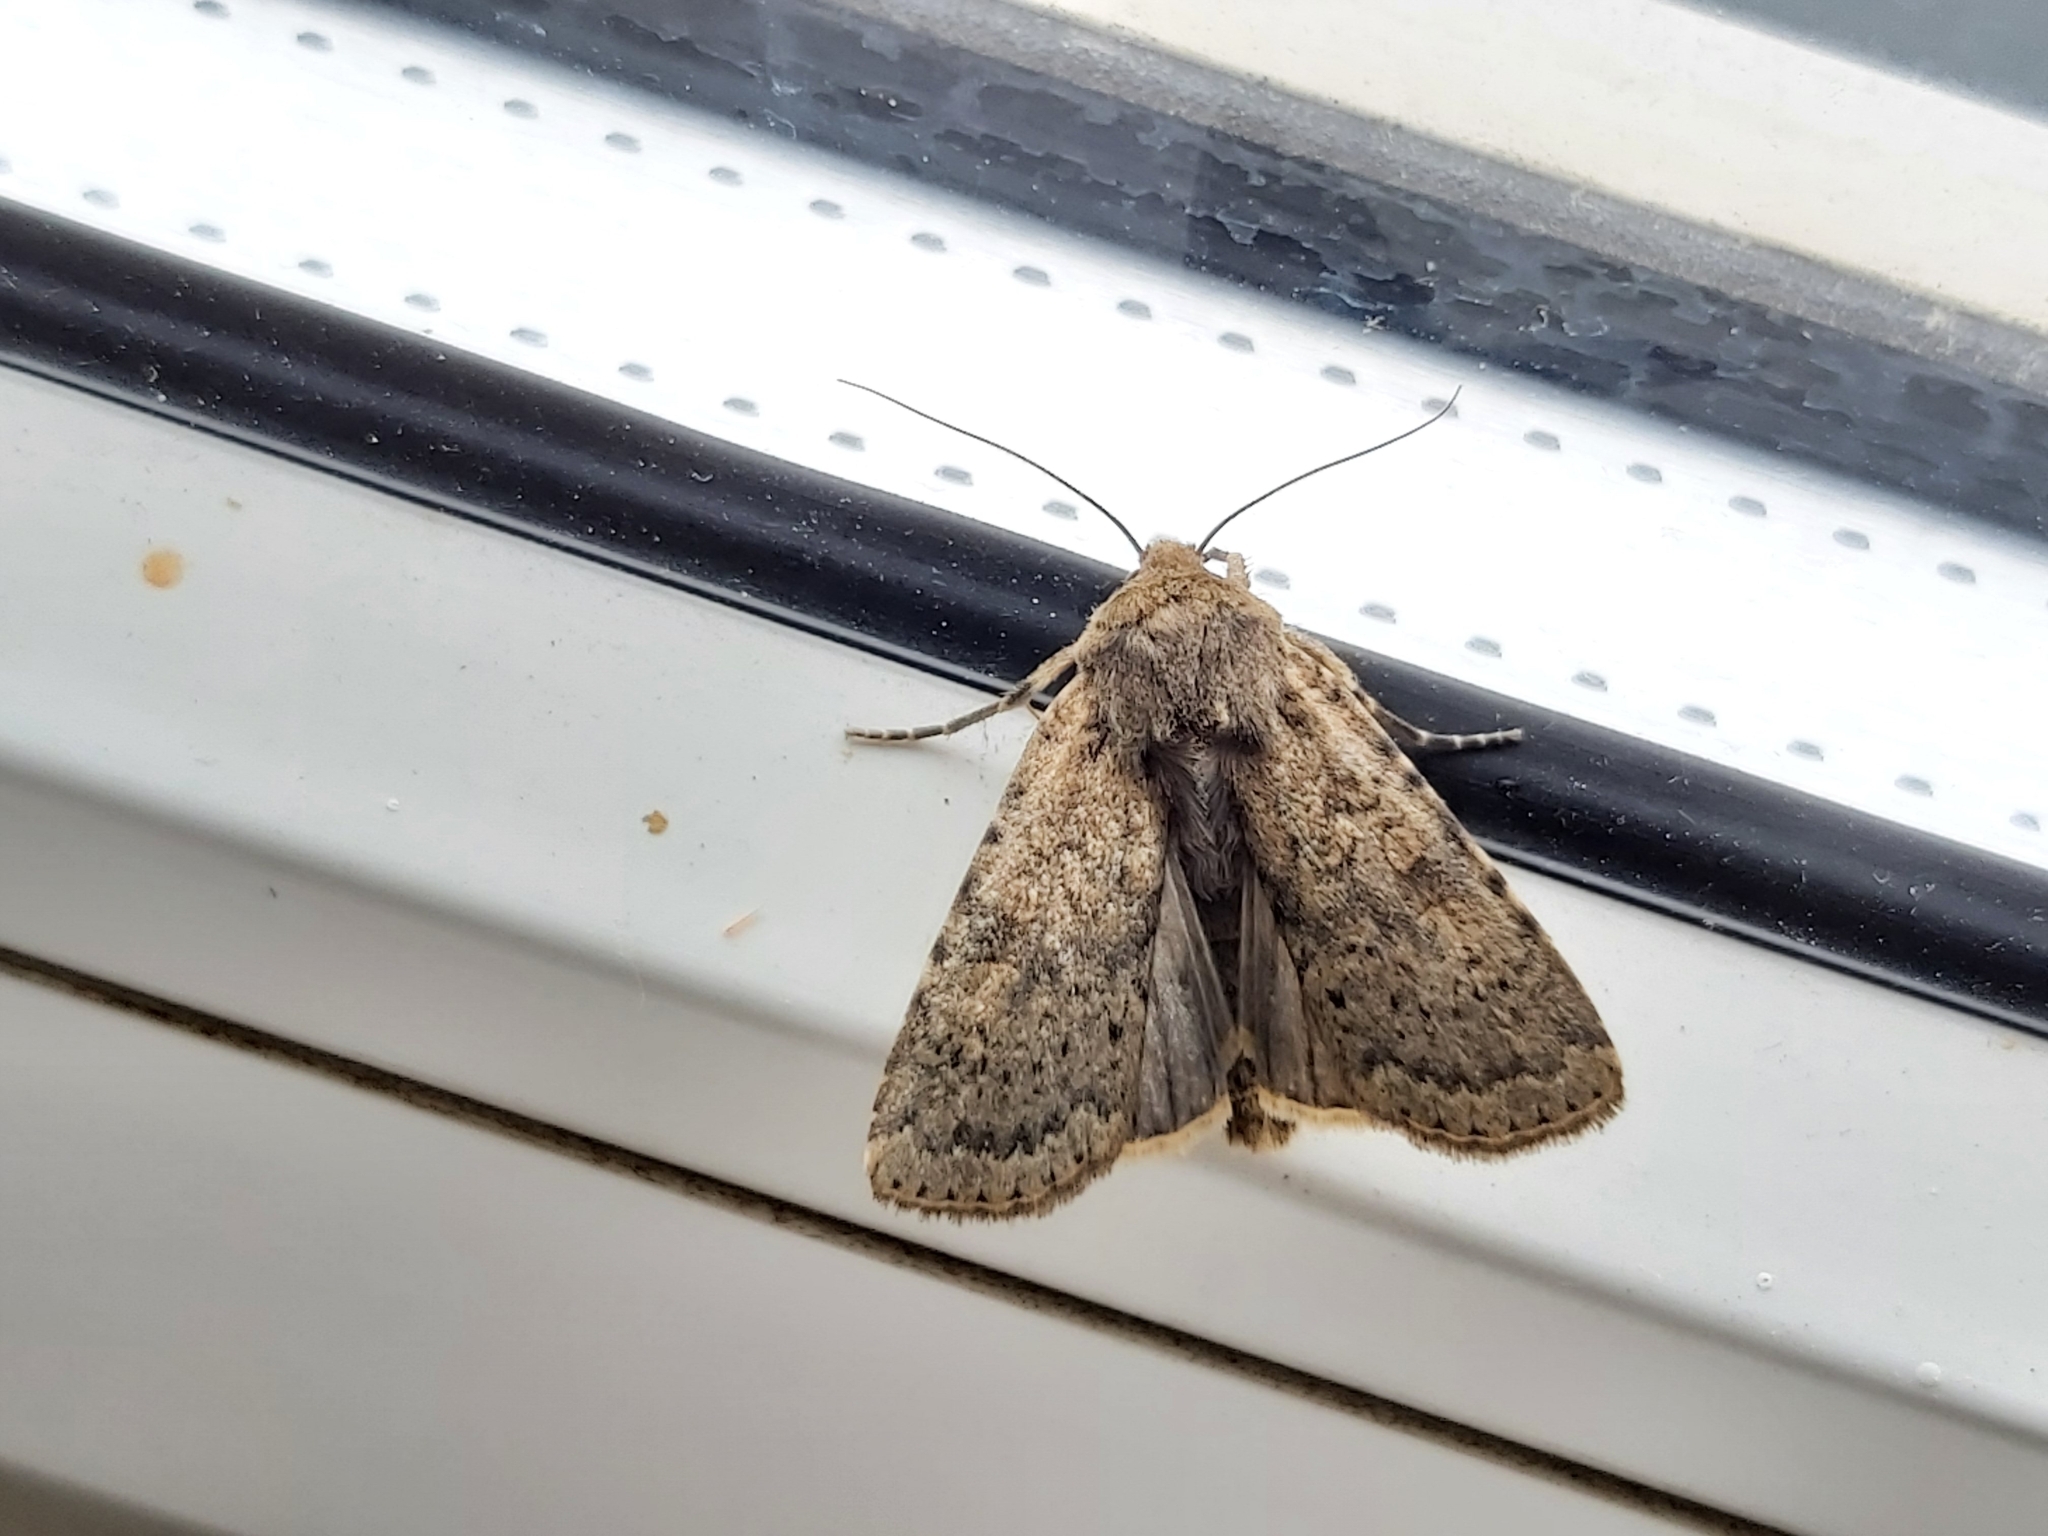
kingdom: Animalia
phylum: Arthropoda
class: Insecta
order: Lepidoptera
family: Noctuidae
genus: Rhyacia
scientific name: Rhyacia simulans
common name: Dotted rustic
